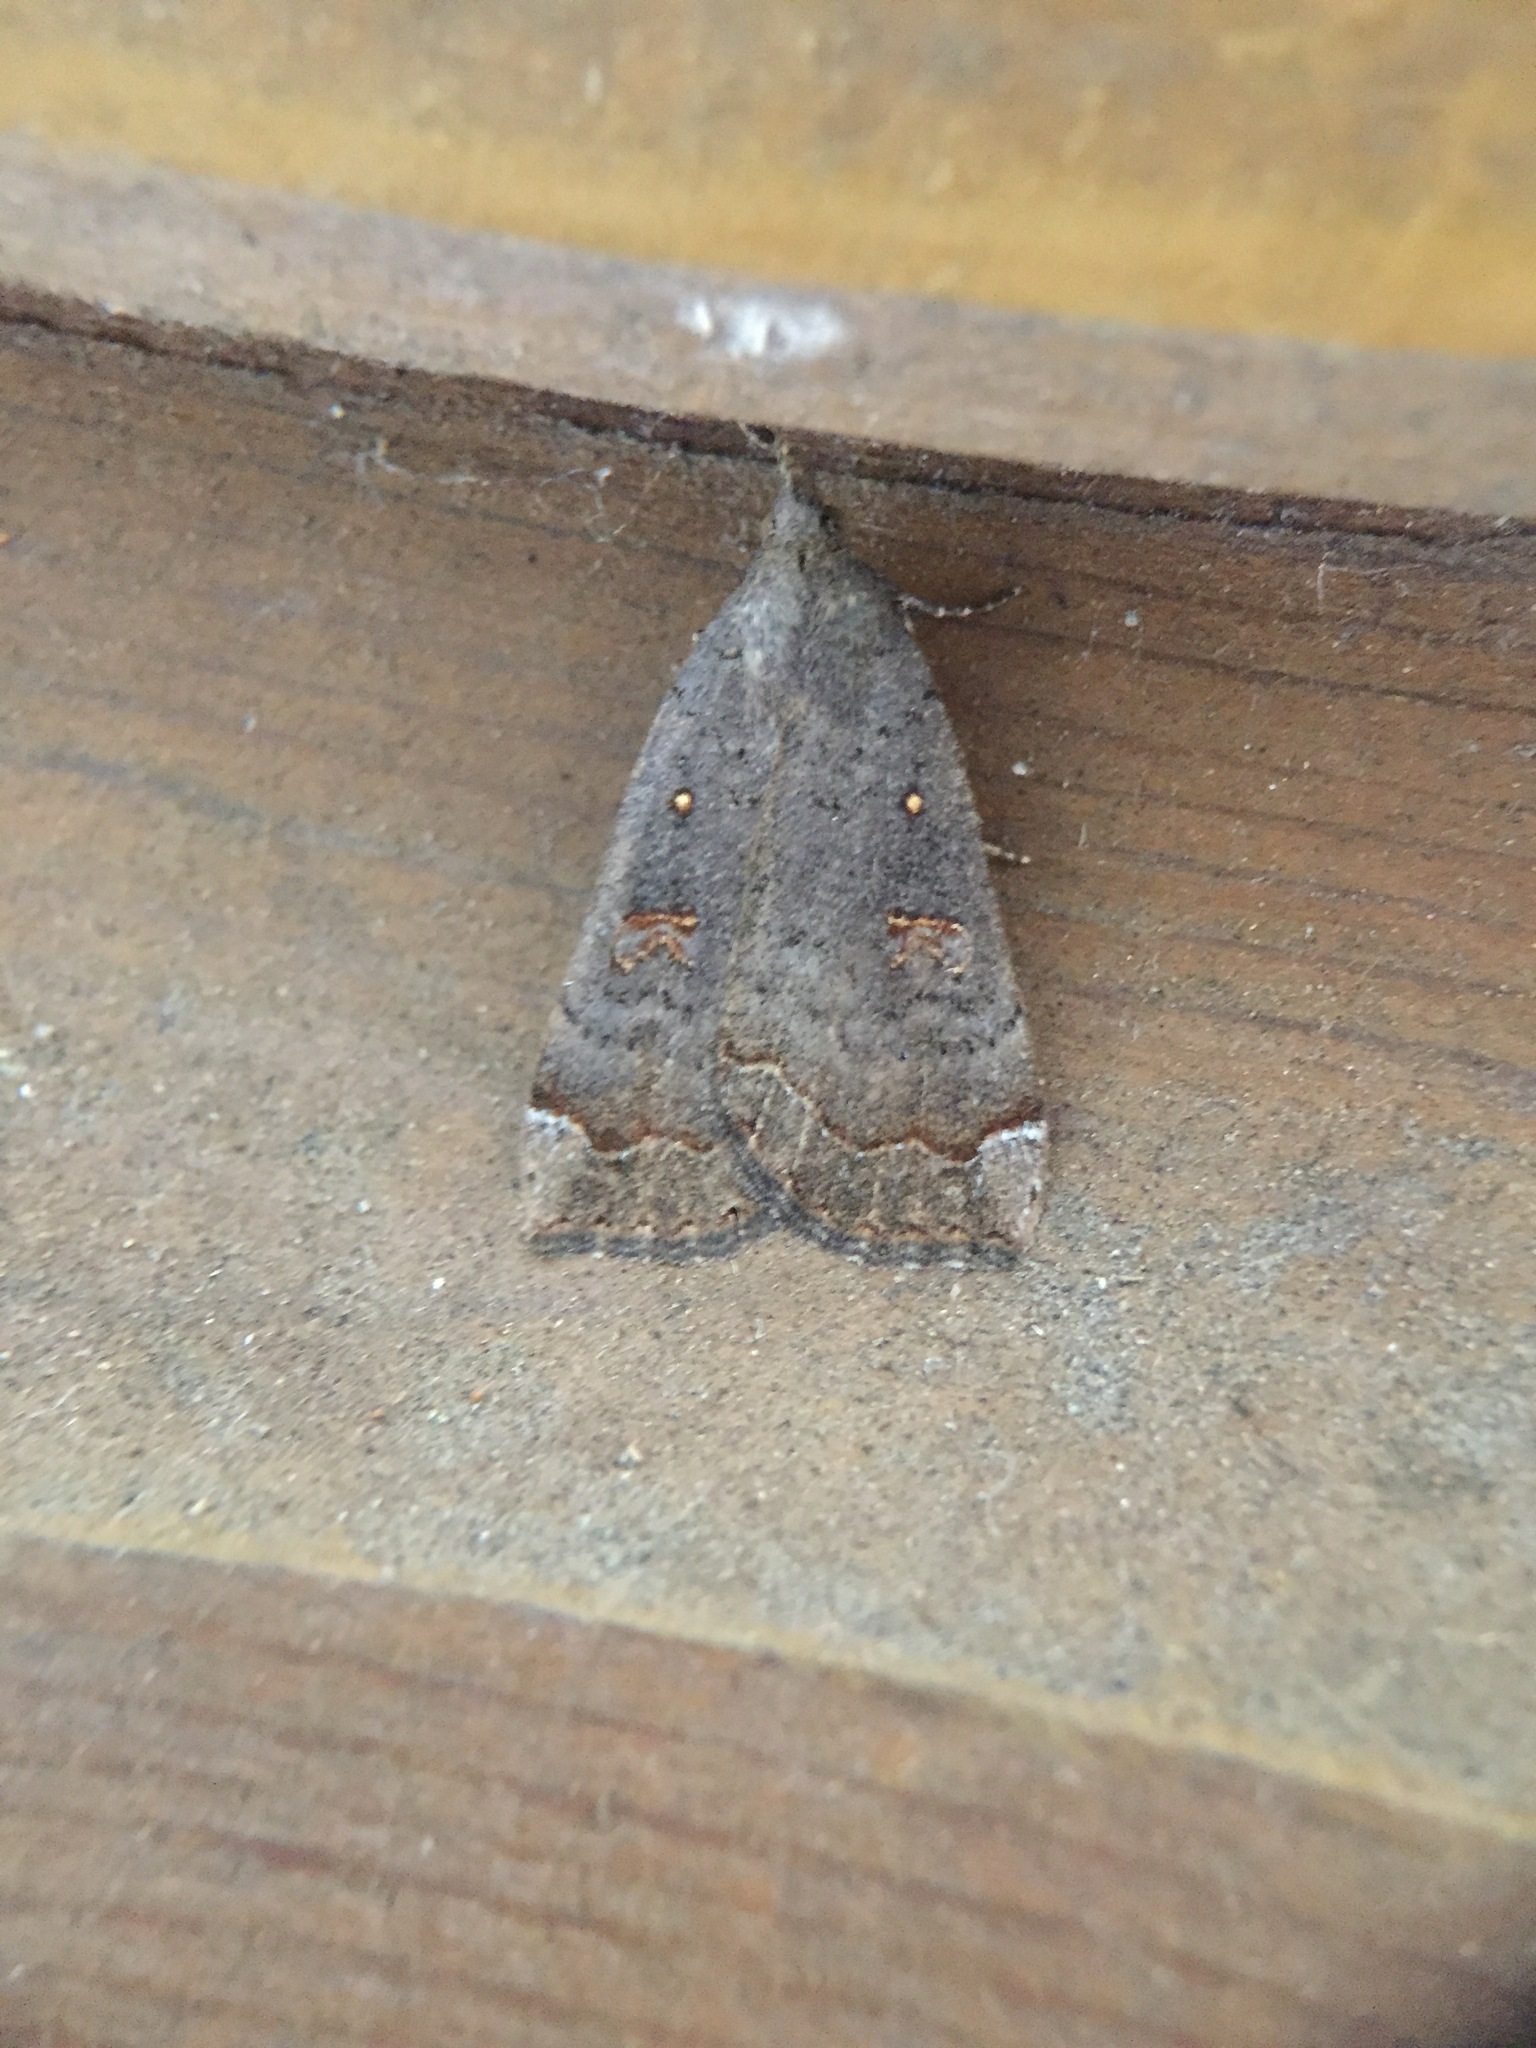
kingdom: Animalia
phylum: Arthropoda
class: Insecta
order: Lepidoptera
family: Erebidae
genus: Rhapsa
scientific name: Rhapsa scotosialis
